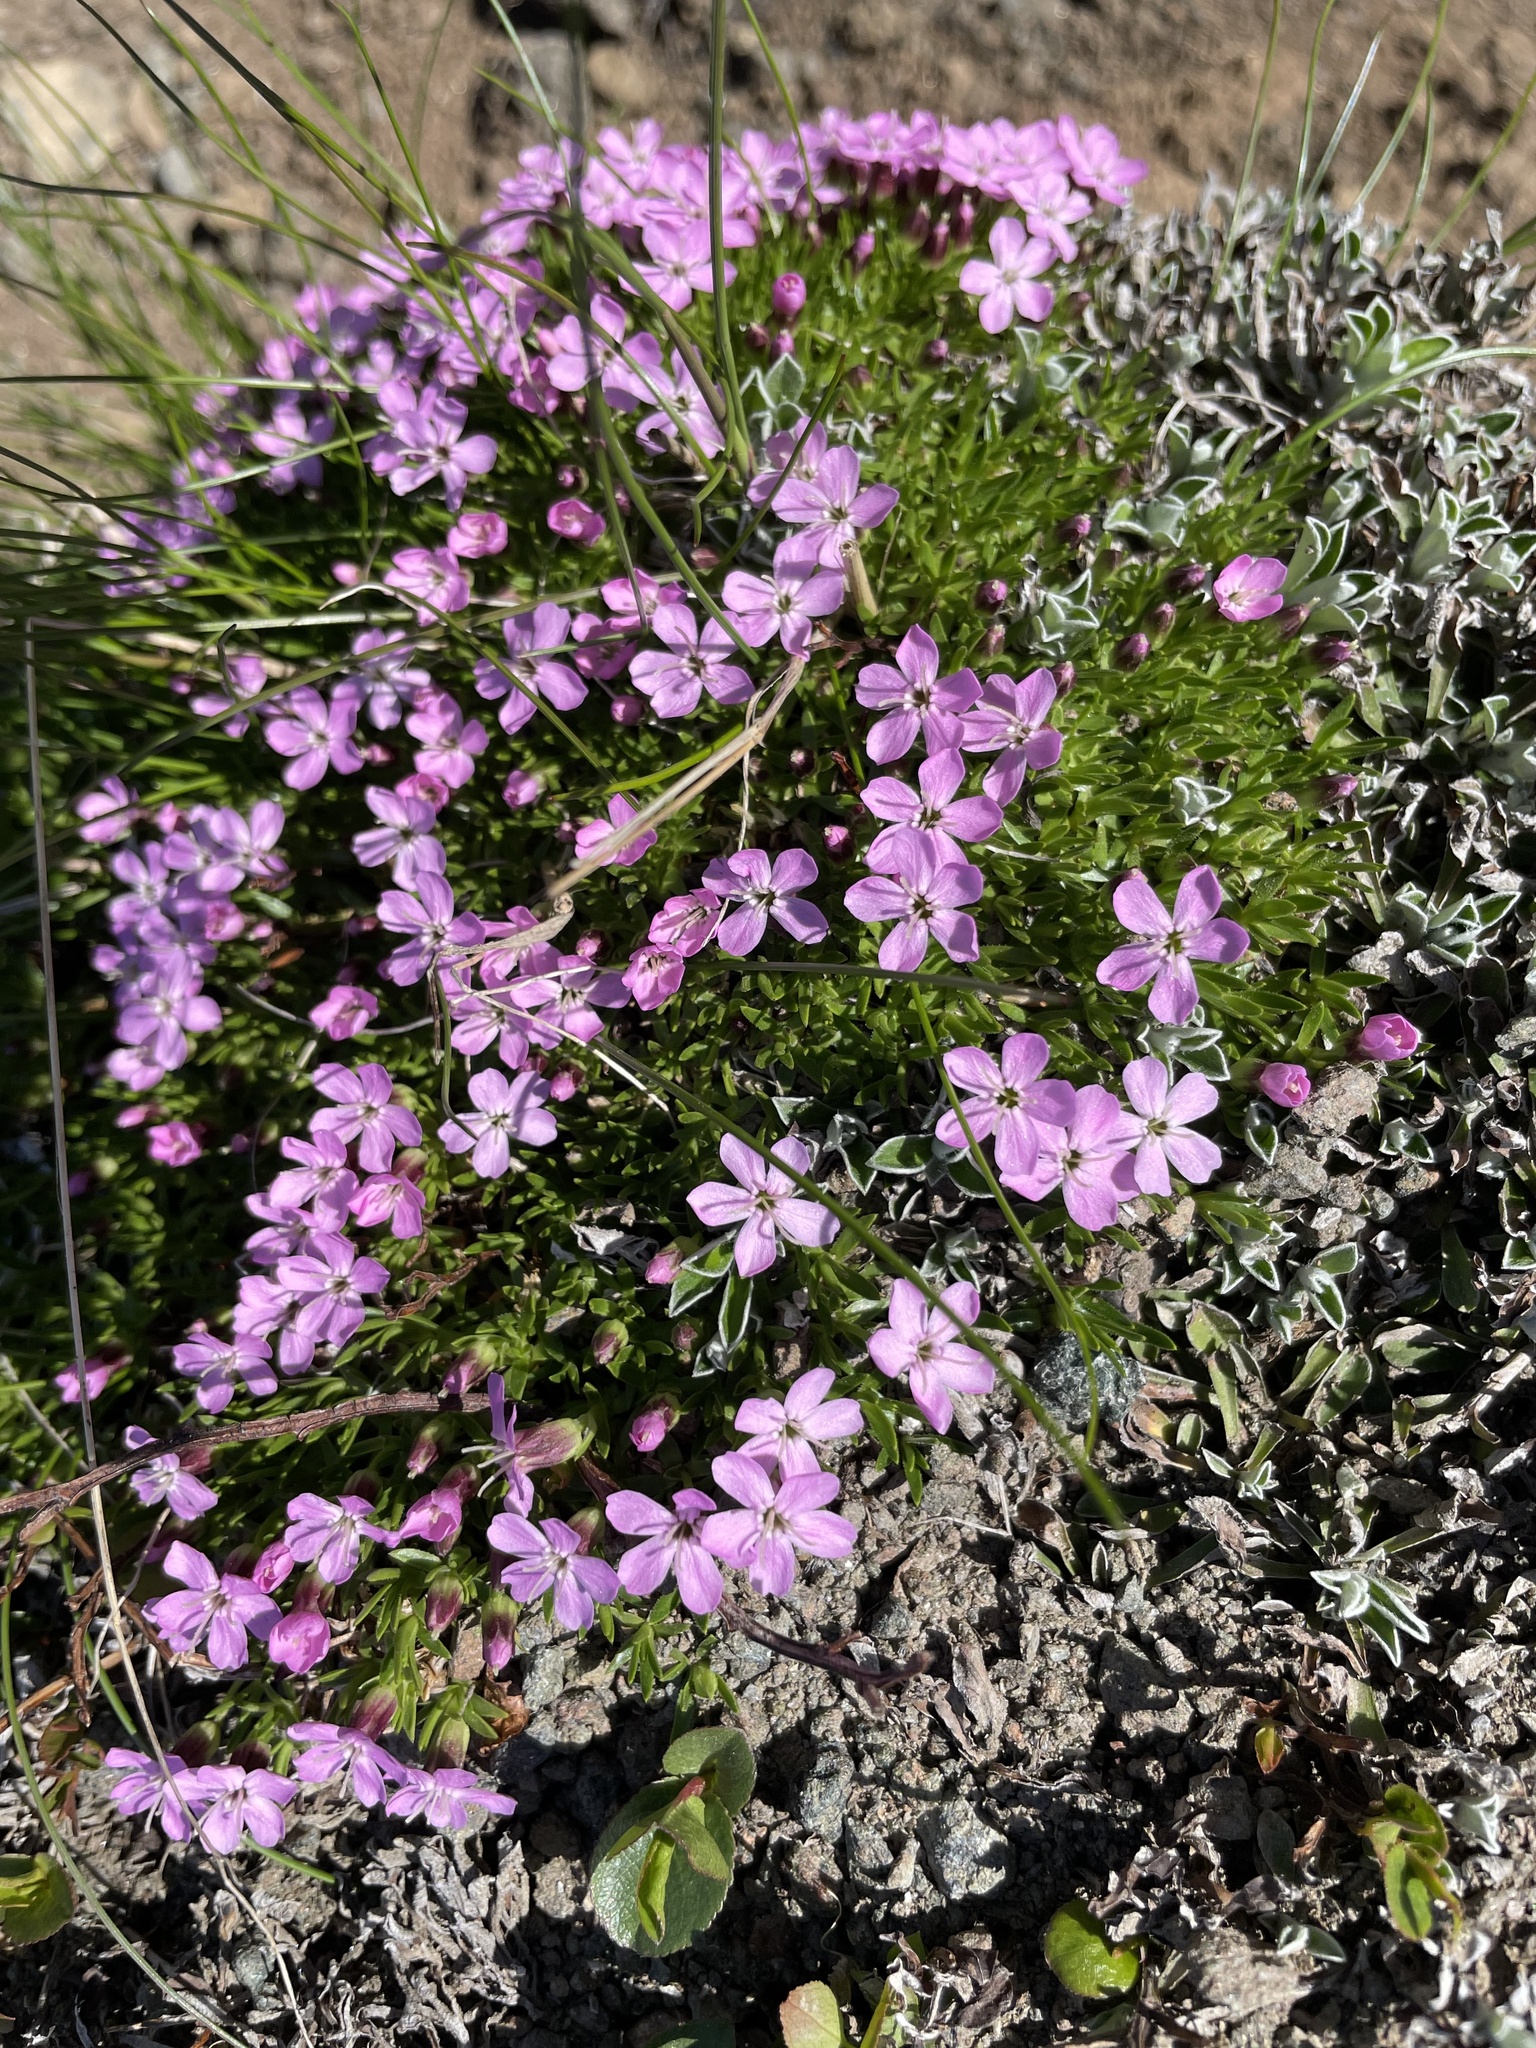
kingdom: Plantae
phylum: Tracheophyta
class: Magnoliopsida
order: Caryophyllales
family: Caryophyllaceae
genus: Silene
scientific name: Silene acaulis
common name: Moss campion
